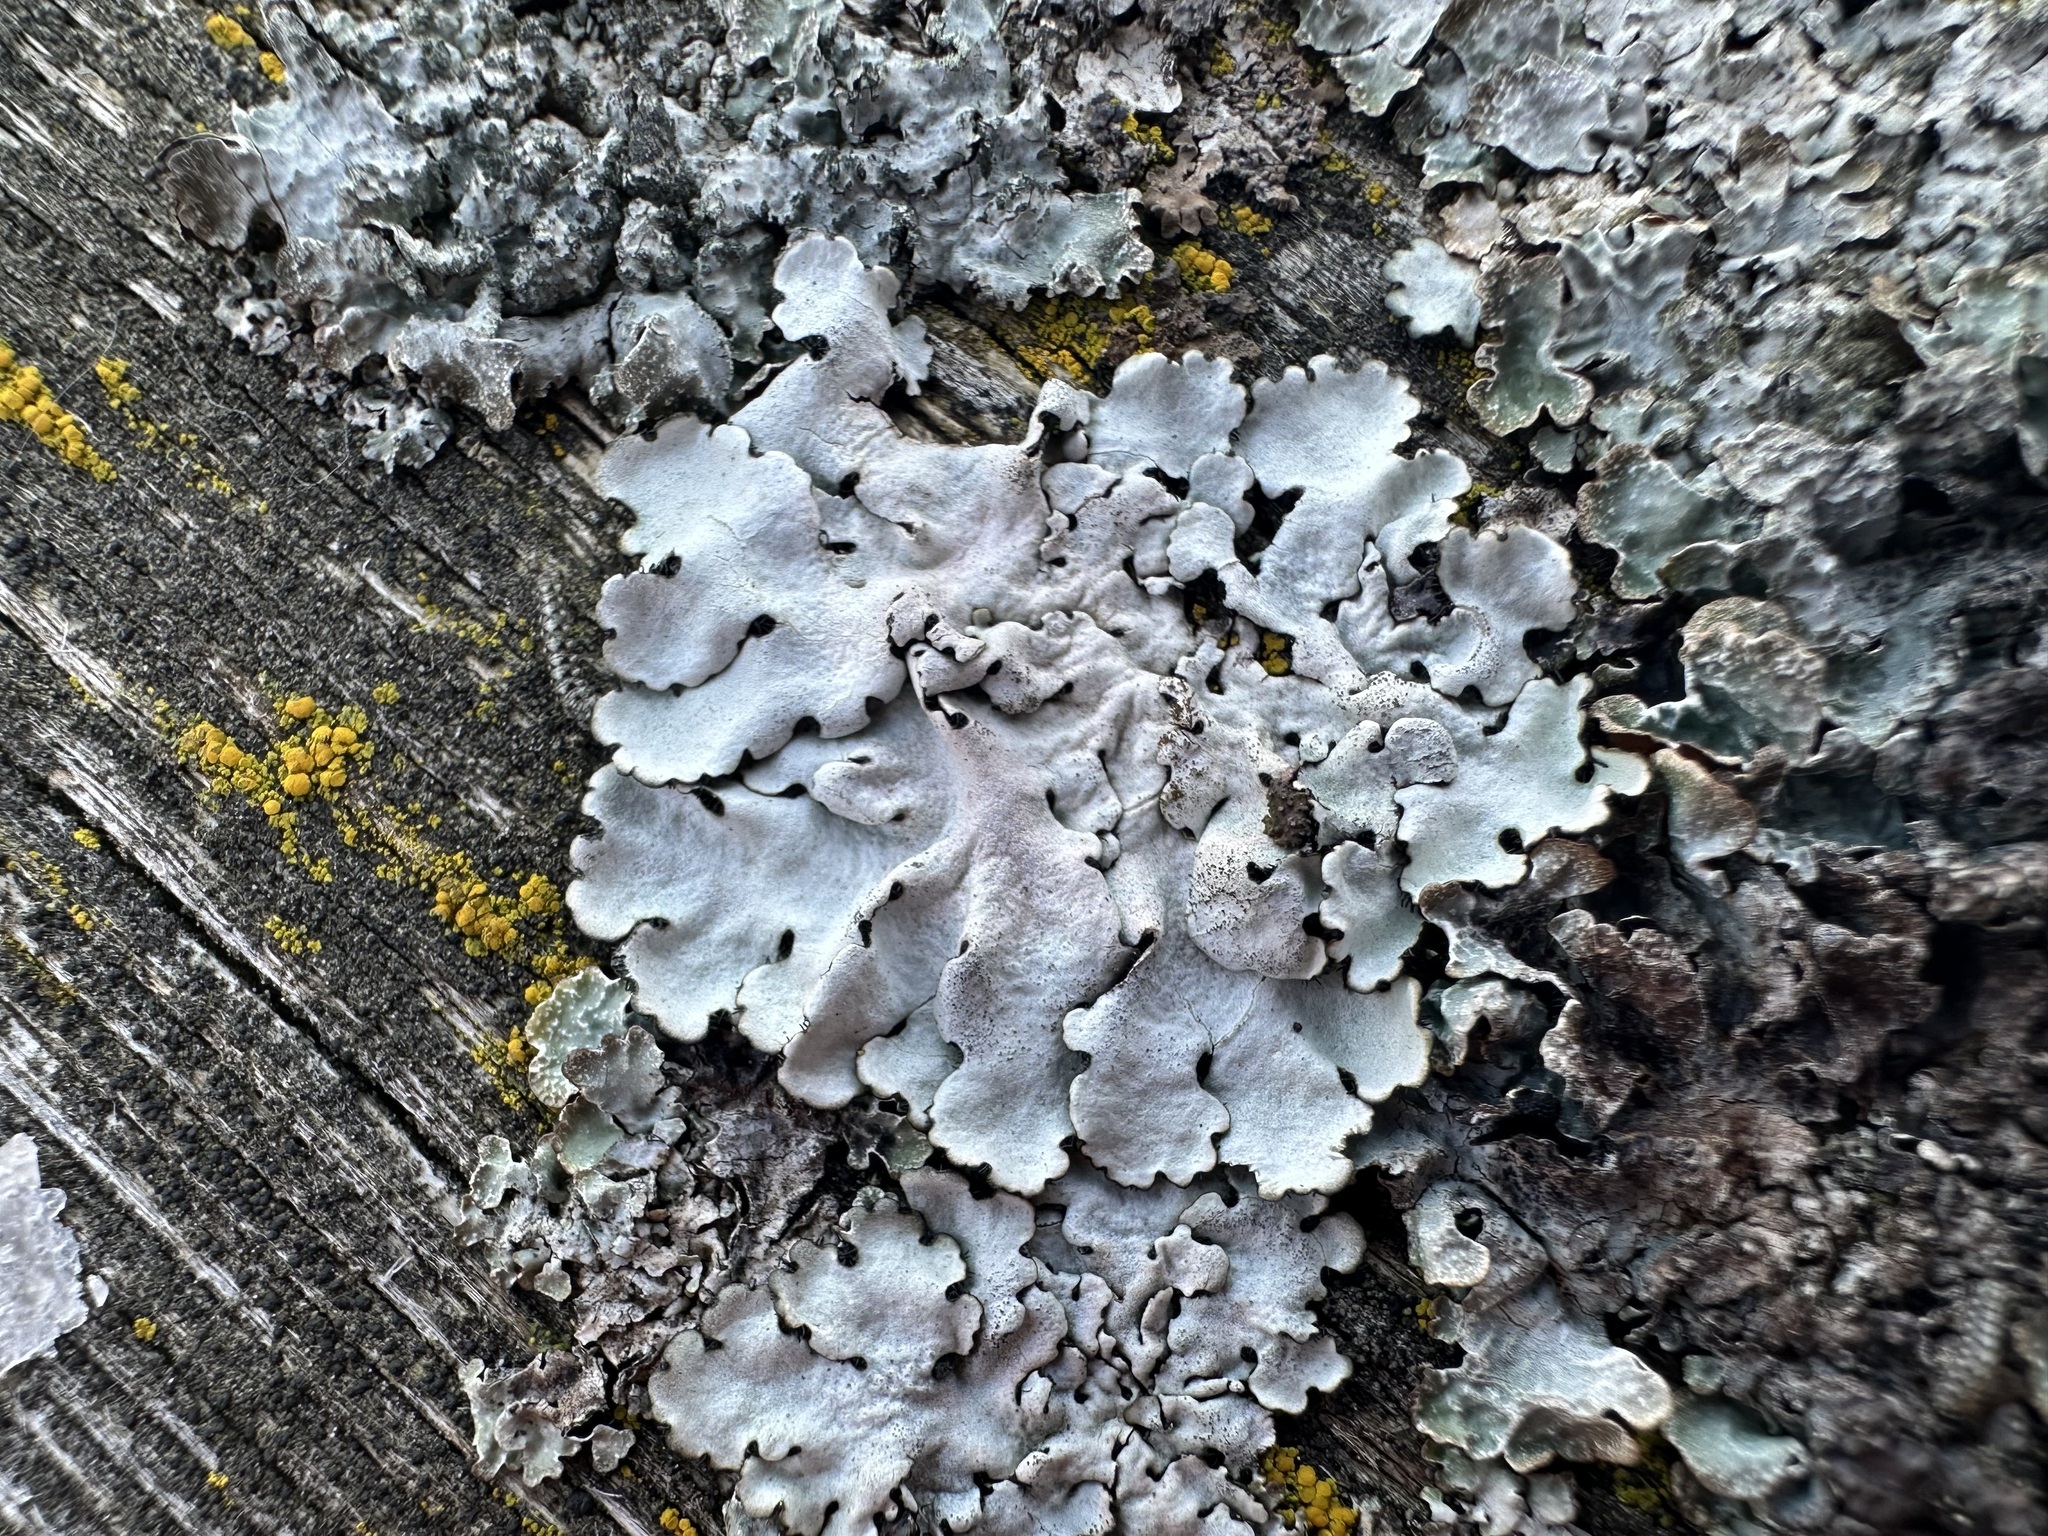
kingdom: Fungi
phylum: Ascomycota
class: Lecanoromycetes
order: Lecanorales
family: Parmeliaceae
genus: Parmelina
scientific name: Parmelina tiliacea
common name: Linden shield lichen
